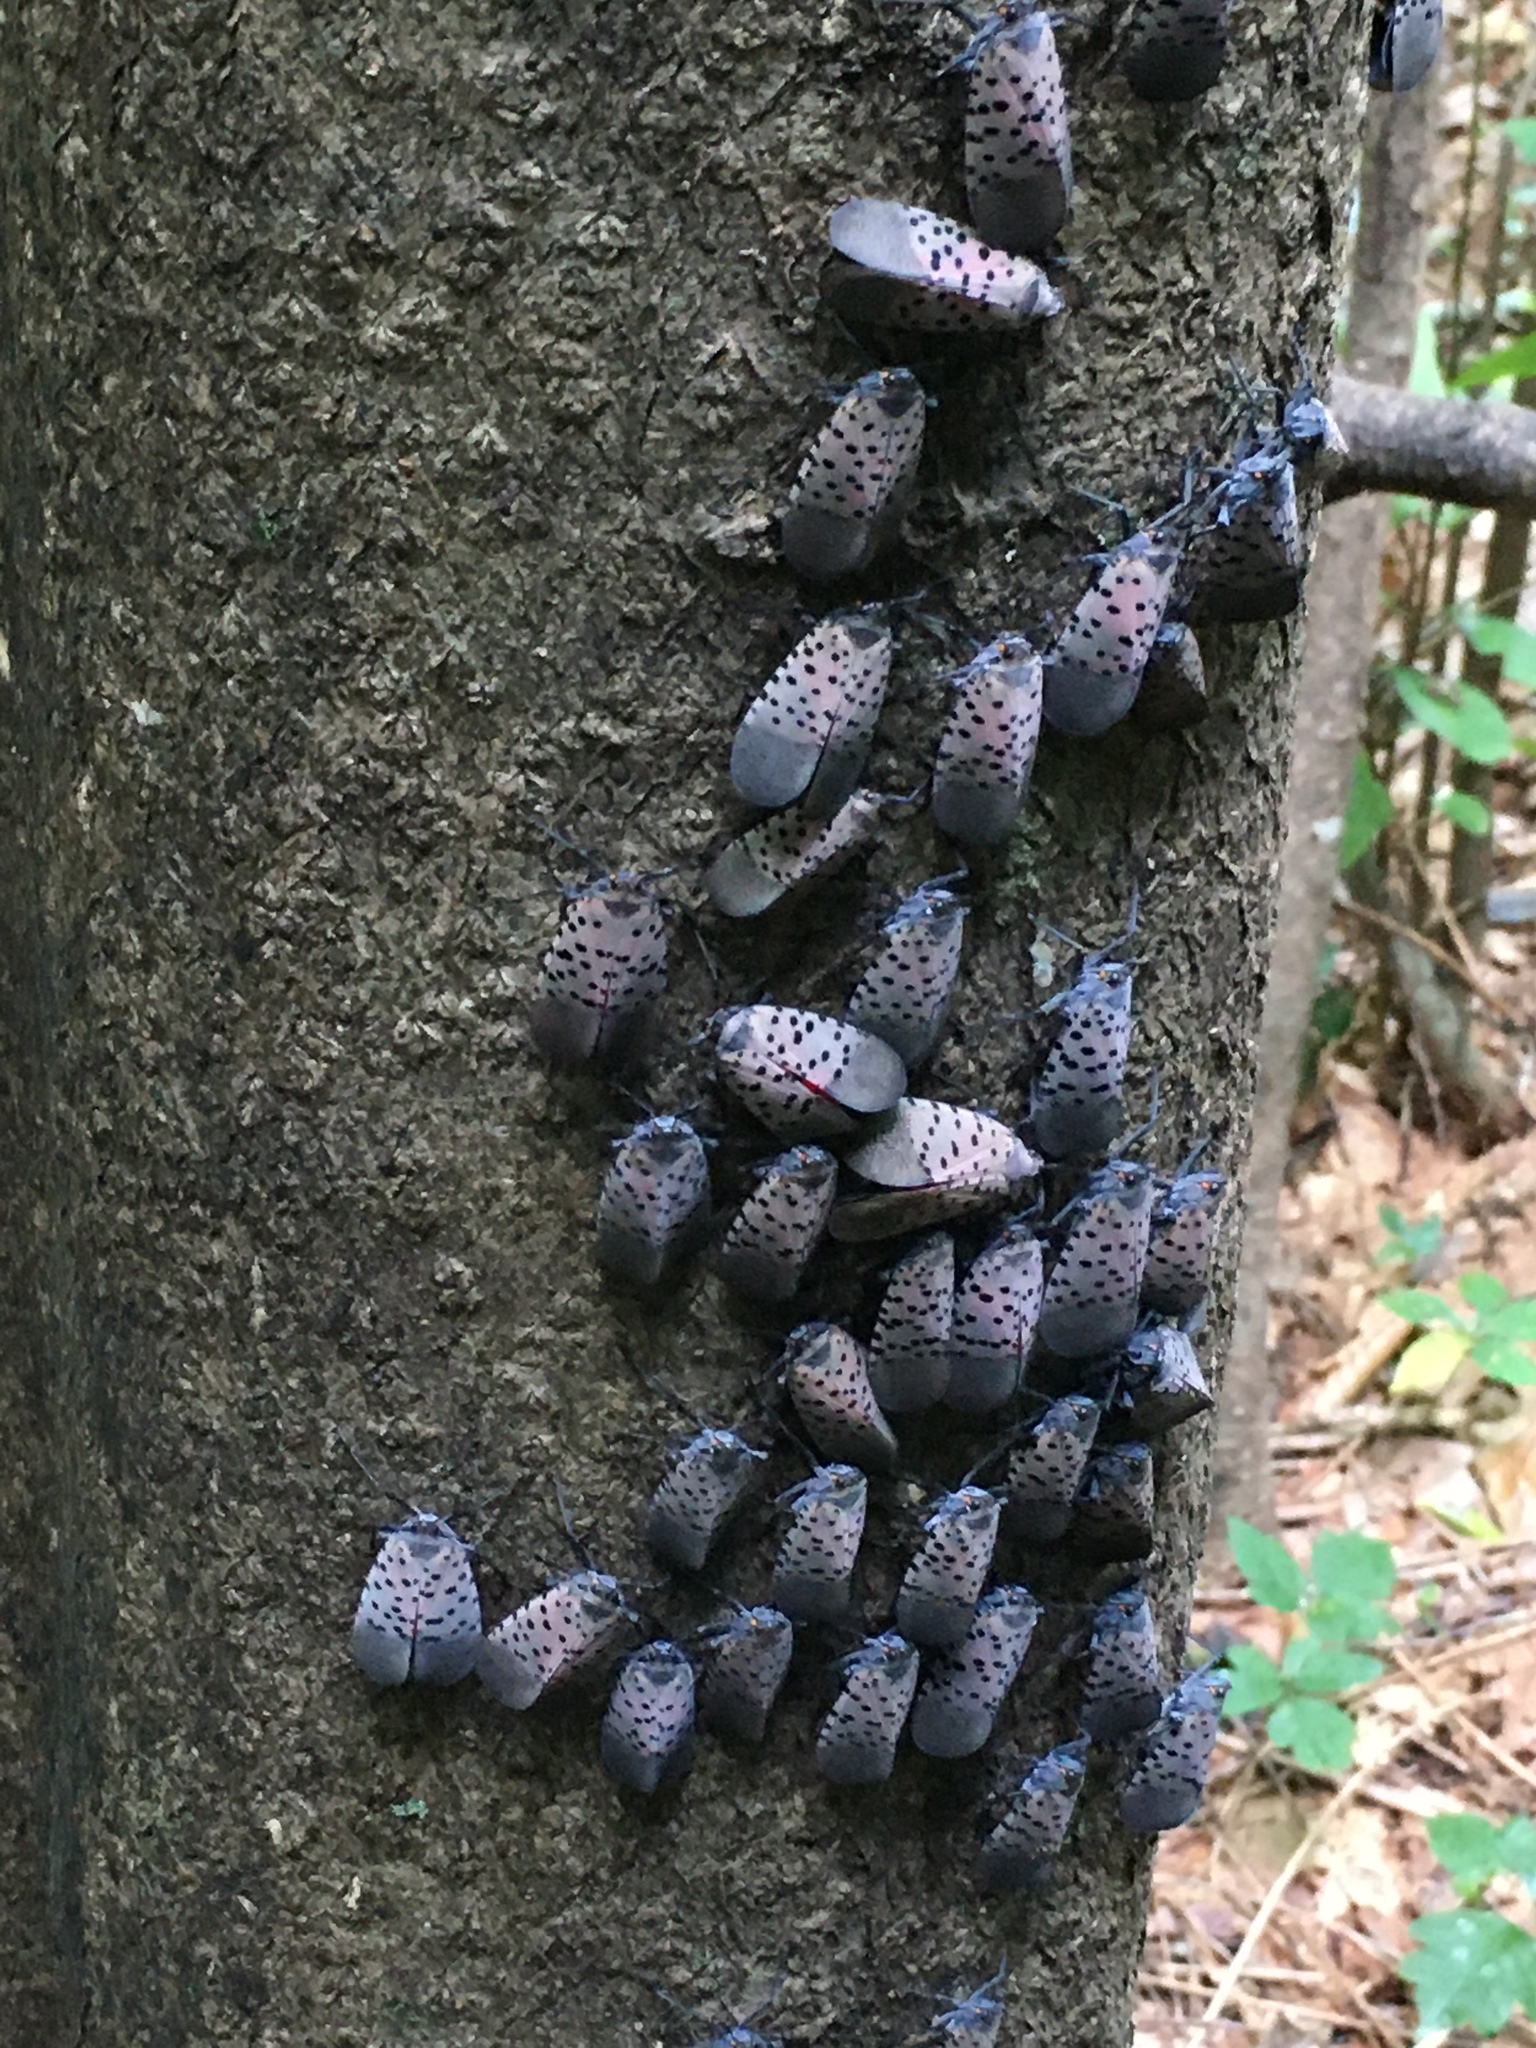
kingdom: Animalia
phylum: Arthropoda
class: Insecta
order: Hemiptera
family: Fulgoridae
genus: Lycorma
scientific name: Lycorma delicatula
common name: Spotted lanternfly
